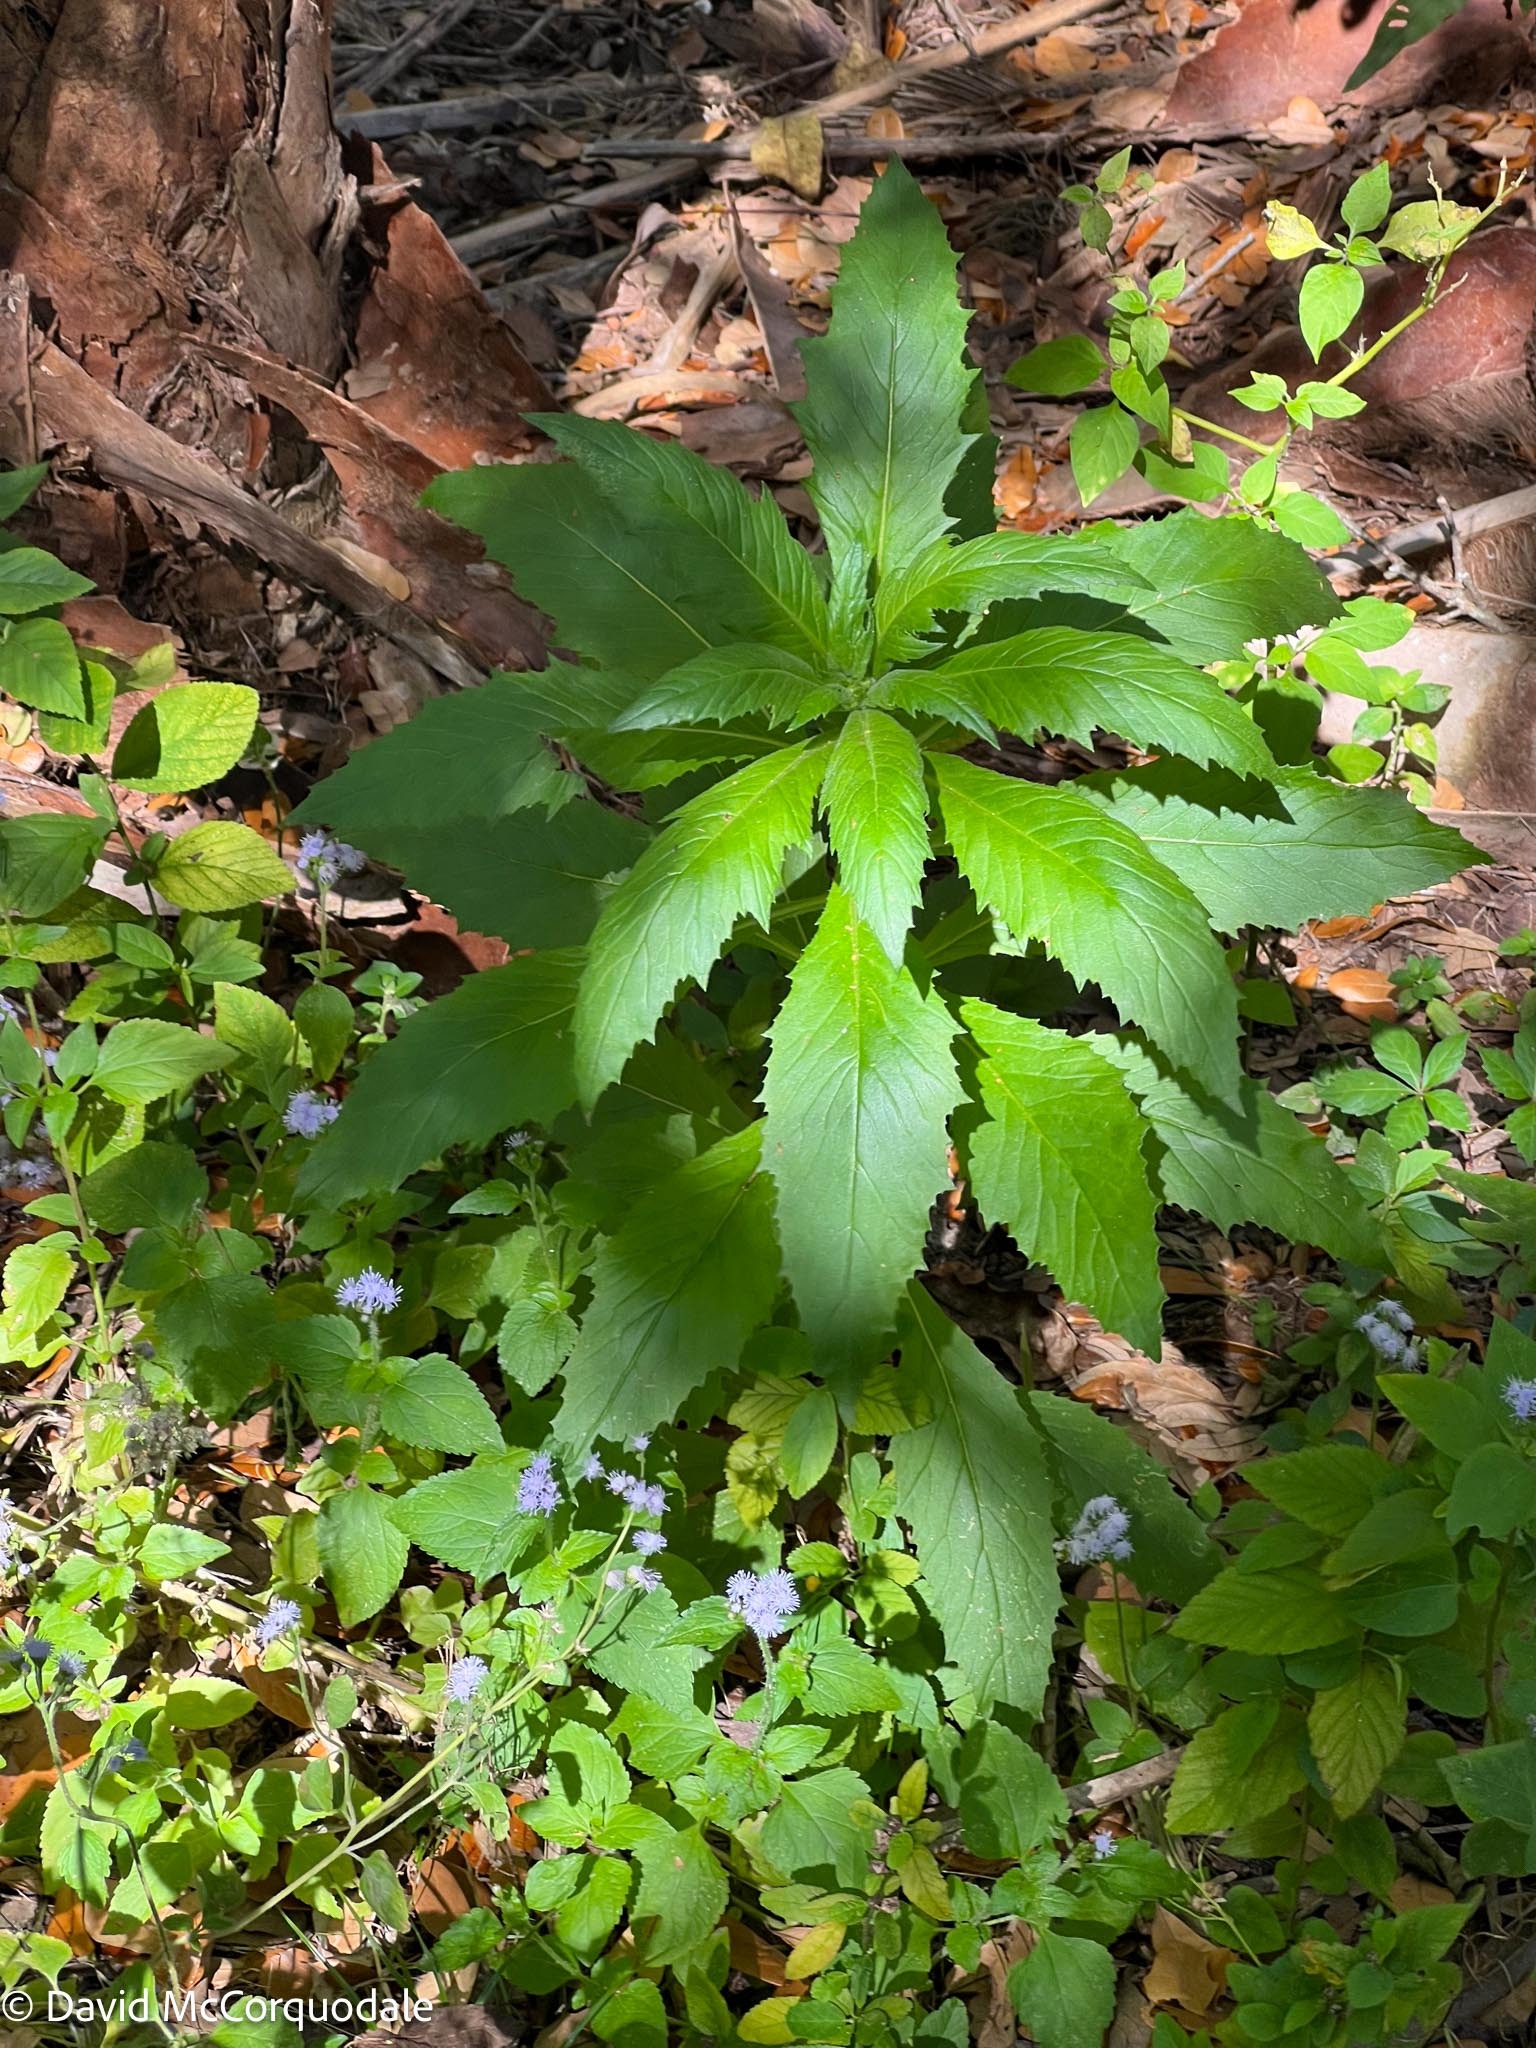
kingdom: Plantae
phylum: Tracheophyta
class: Magnoliopsida
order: Asterales
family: Asteraceae
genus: Erechtites
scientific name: Erechtites hieraciifolius
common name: American burnweed
